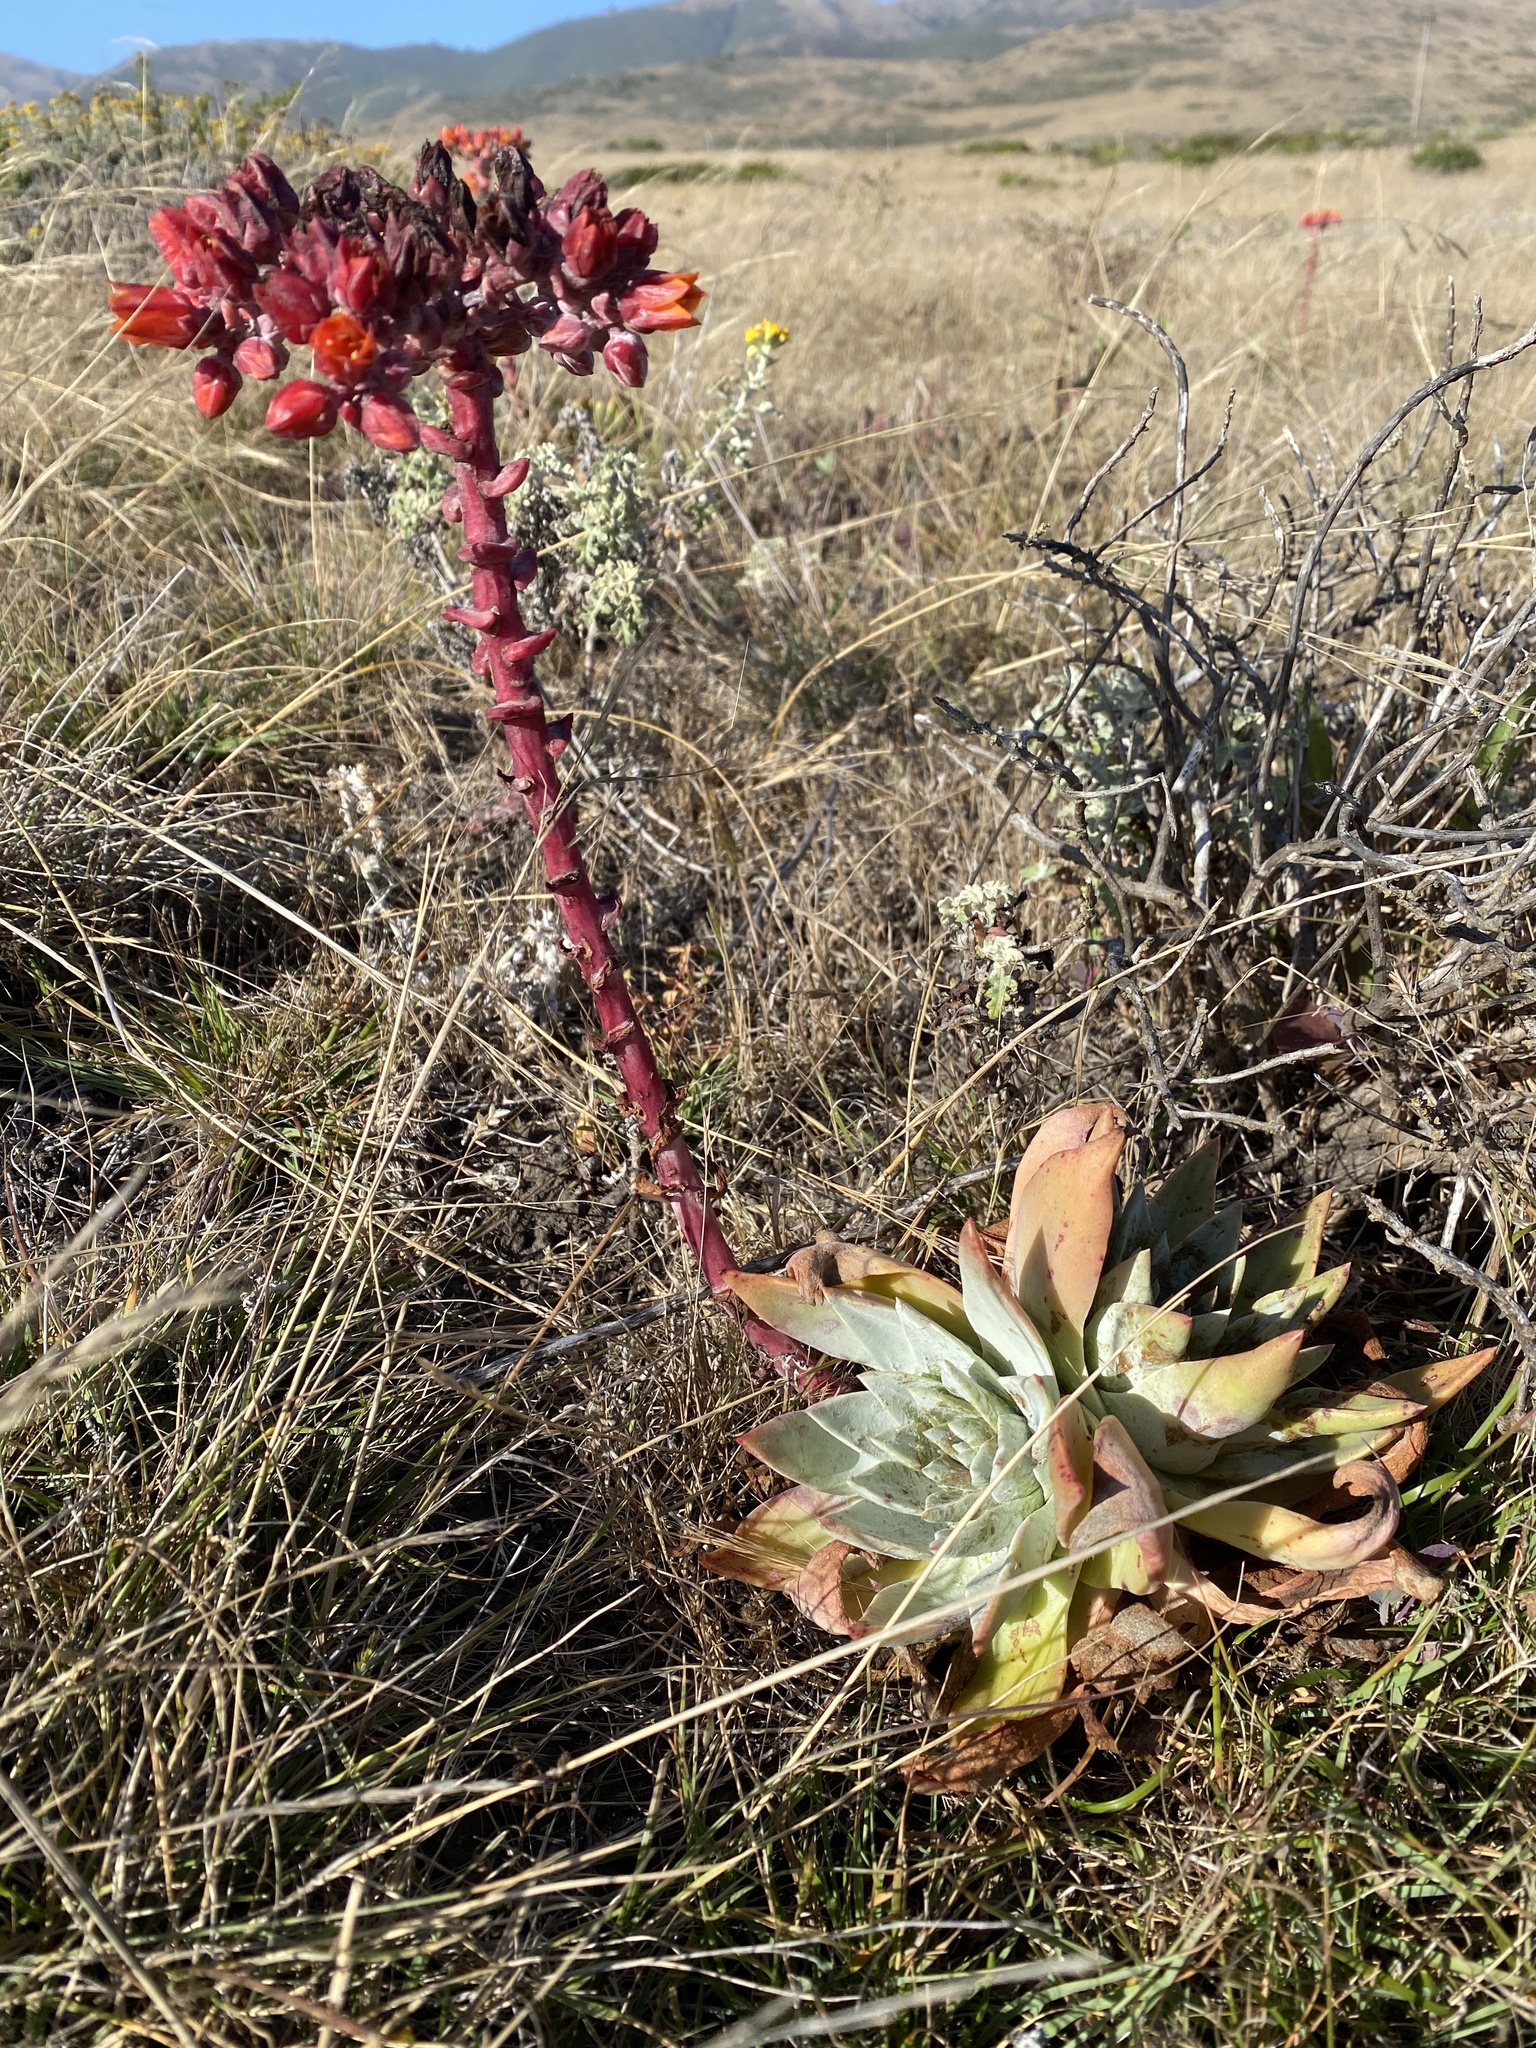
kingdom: Plantae
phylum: Tracheophyta
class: Magnoliopsida
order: Saxifragales
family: Crassulaceae
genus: Dudleya
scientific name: Dudleya palmeri
